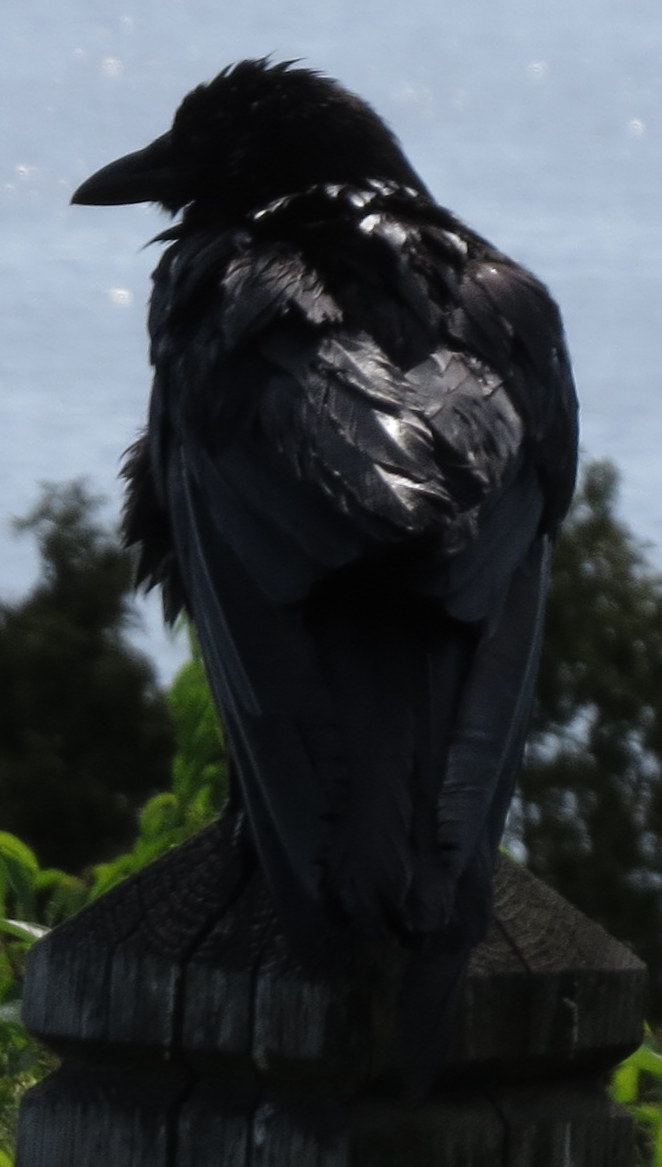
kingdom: Animalia
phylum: Chordata
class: Aves
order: Passeriformes
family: Corvidae
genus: Corvus
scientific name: Corvus brachyrhynchos
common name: American crow
